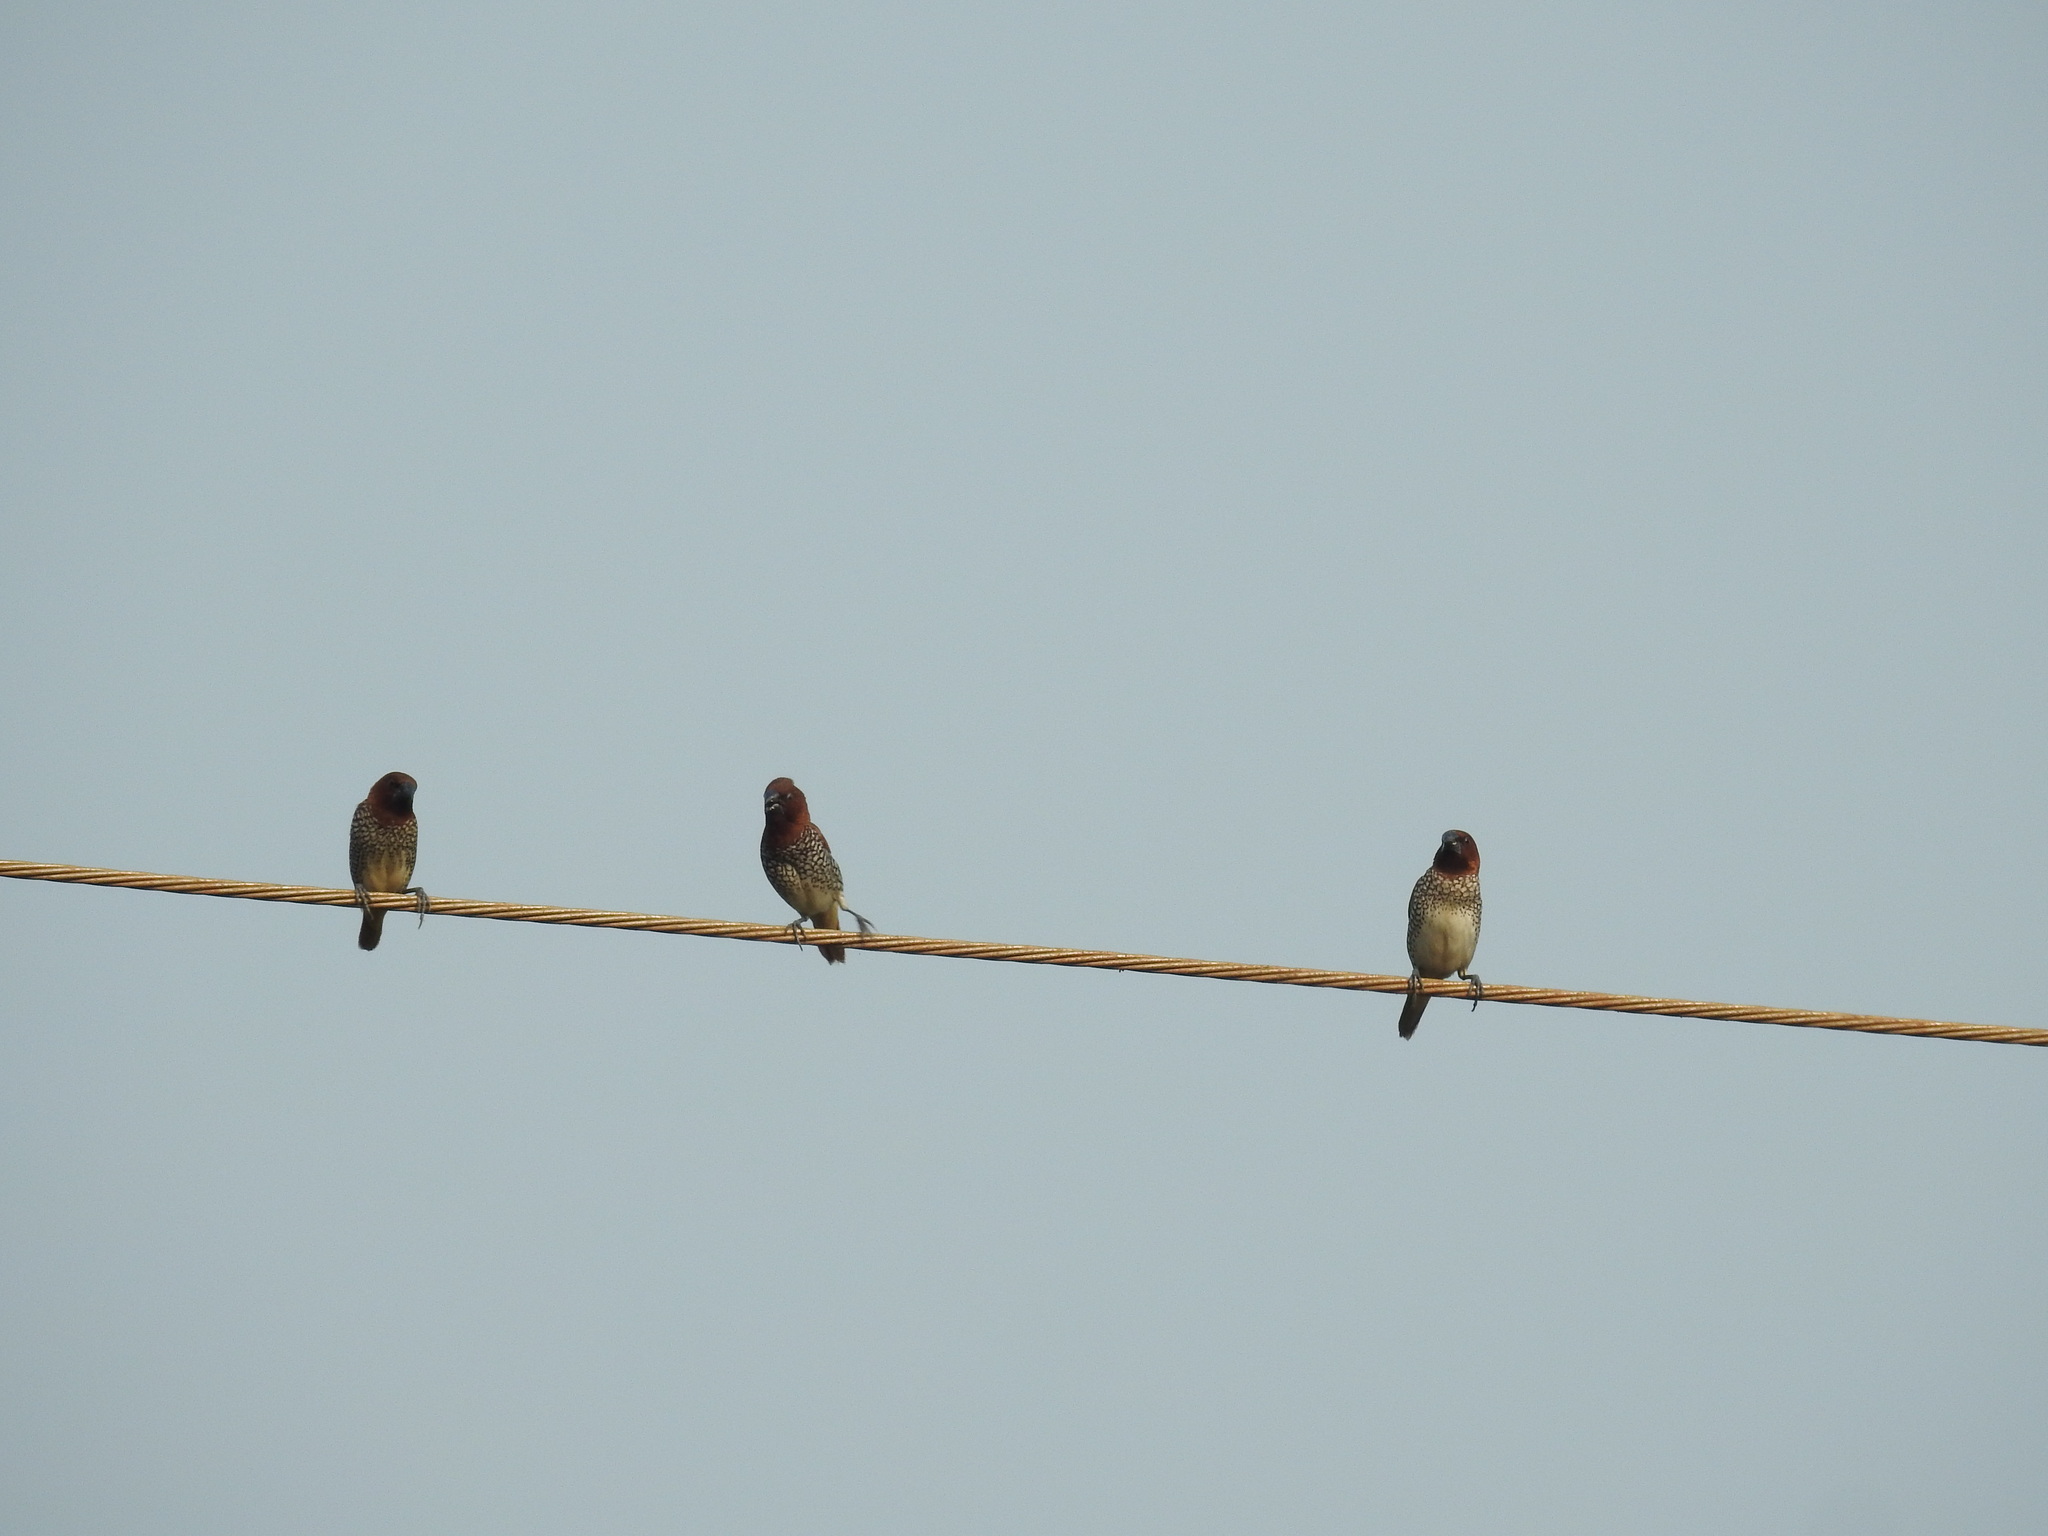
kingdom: Animalia
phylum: Chordata
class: Aves
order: Passeriformes
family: Estrildidae
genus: Lonchura
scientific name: Lonchura punctulata
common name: Scaly-breasted munia
